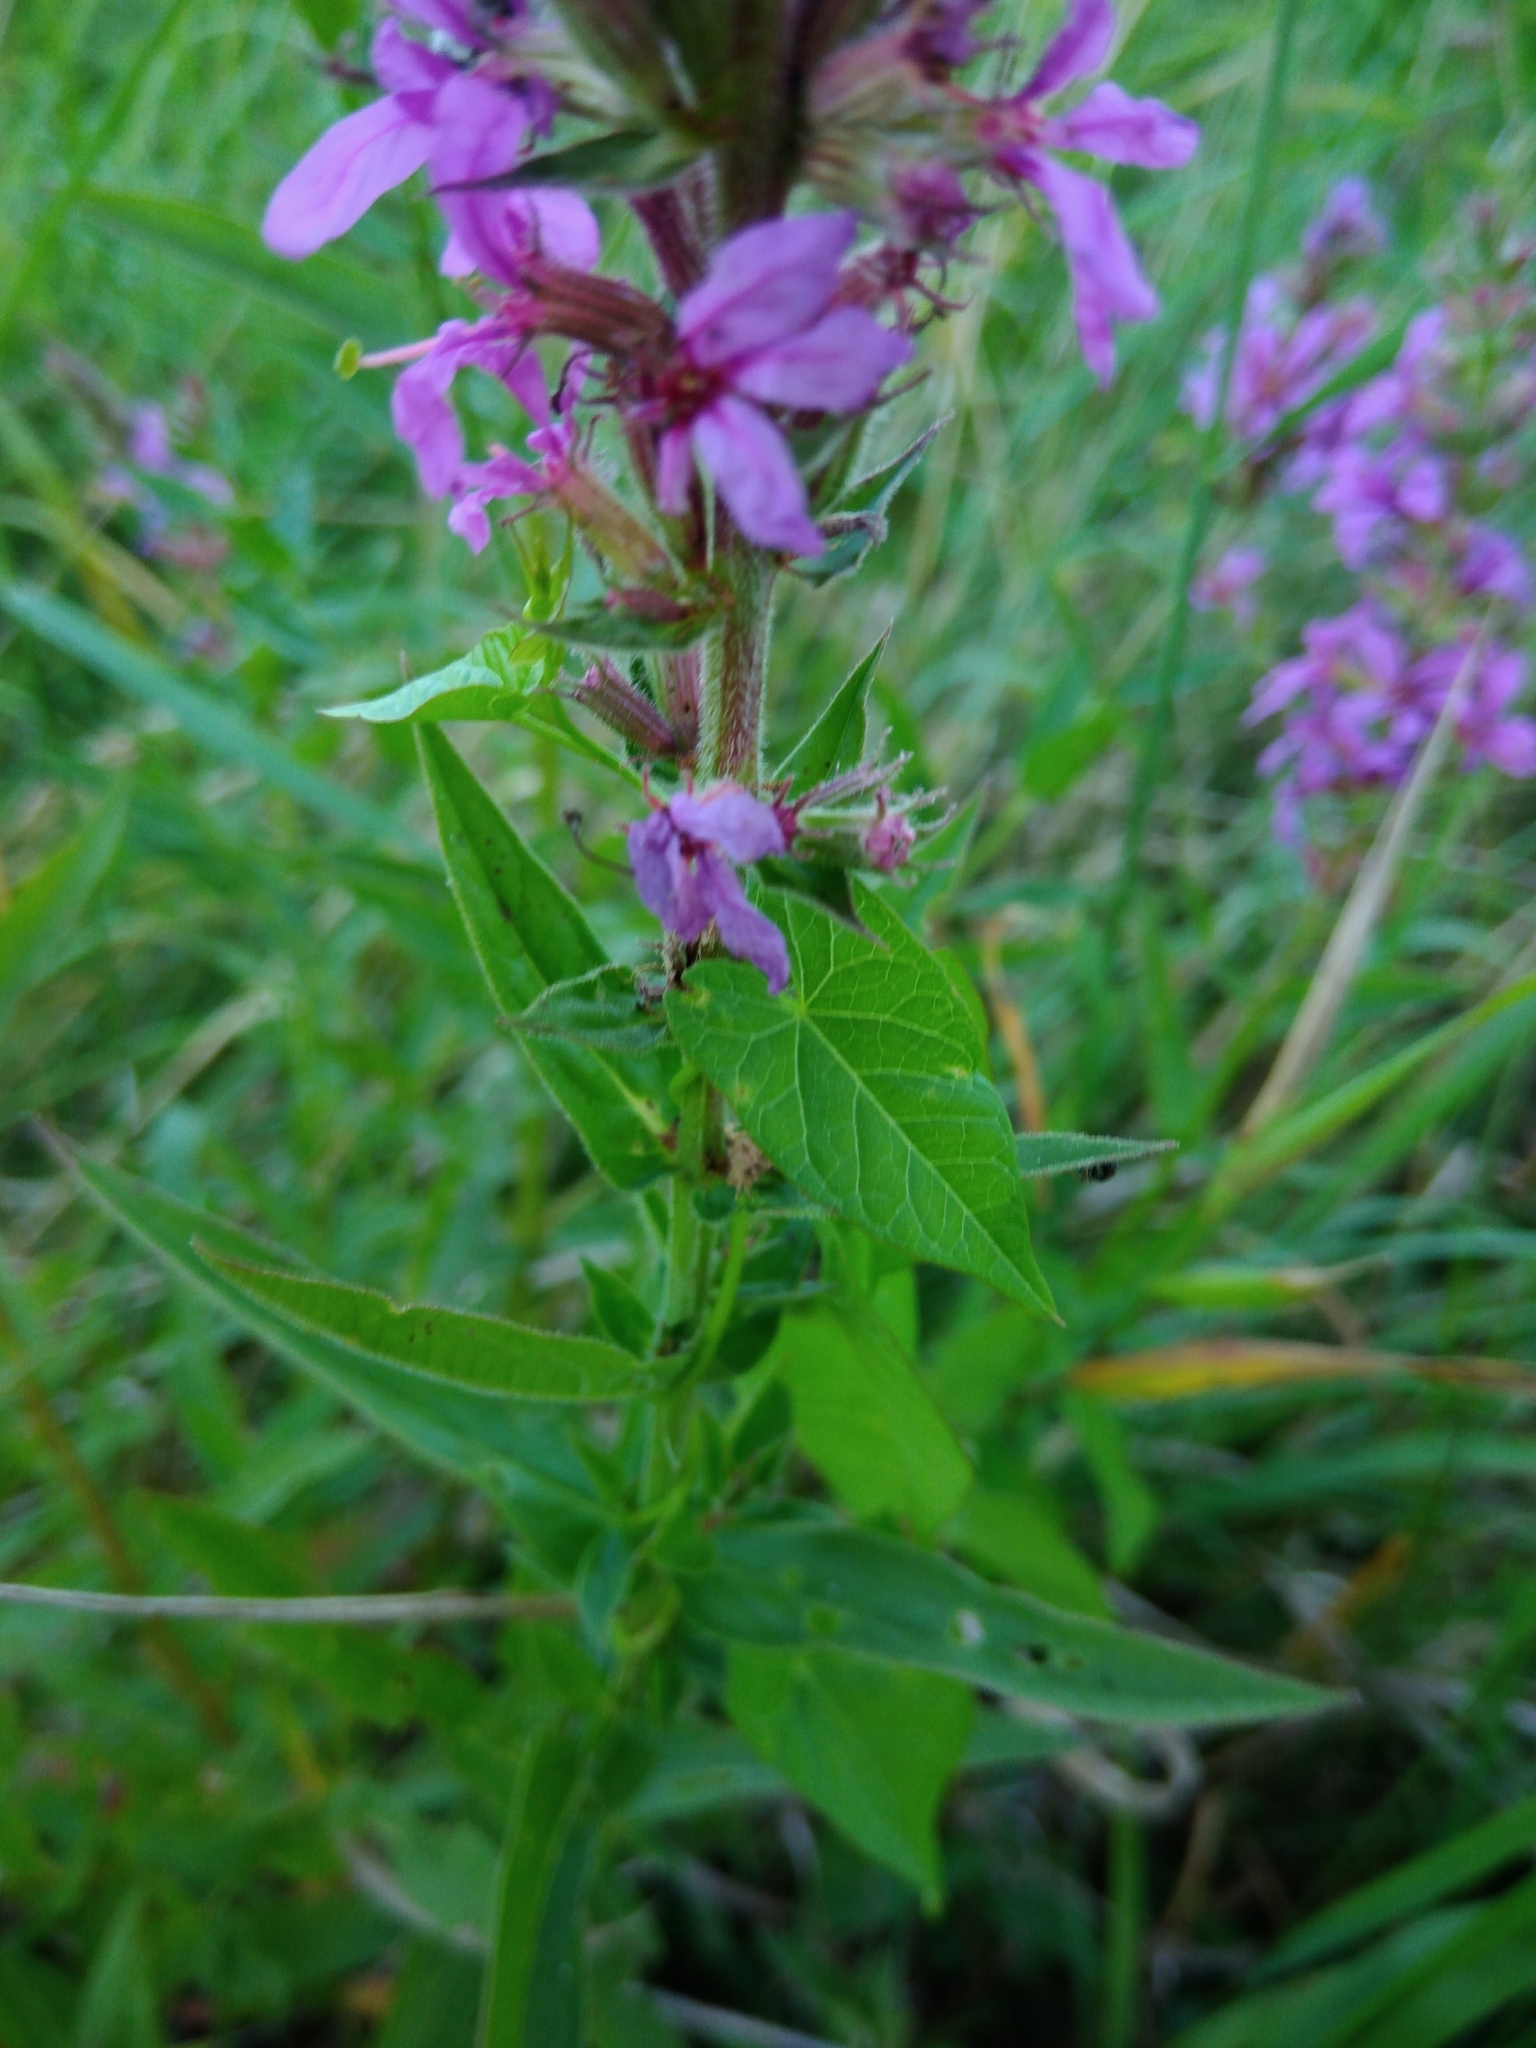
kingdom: Plantae
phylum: Tracheophyta
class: Magnoliopsida
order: Myrtales
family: Lythraceae
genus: Lythrum
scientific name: Lythrum salicaria
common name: Purple loosestrife
